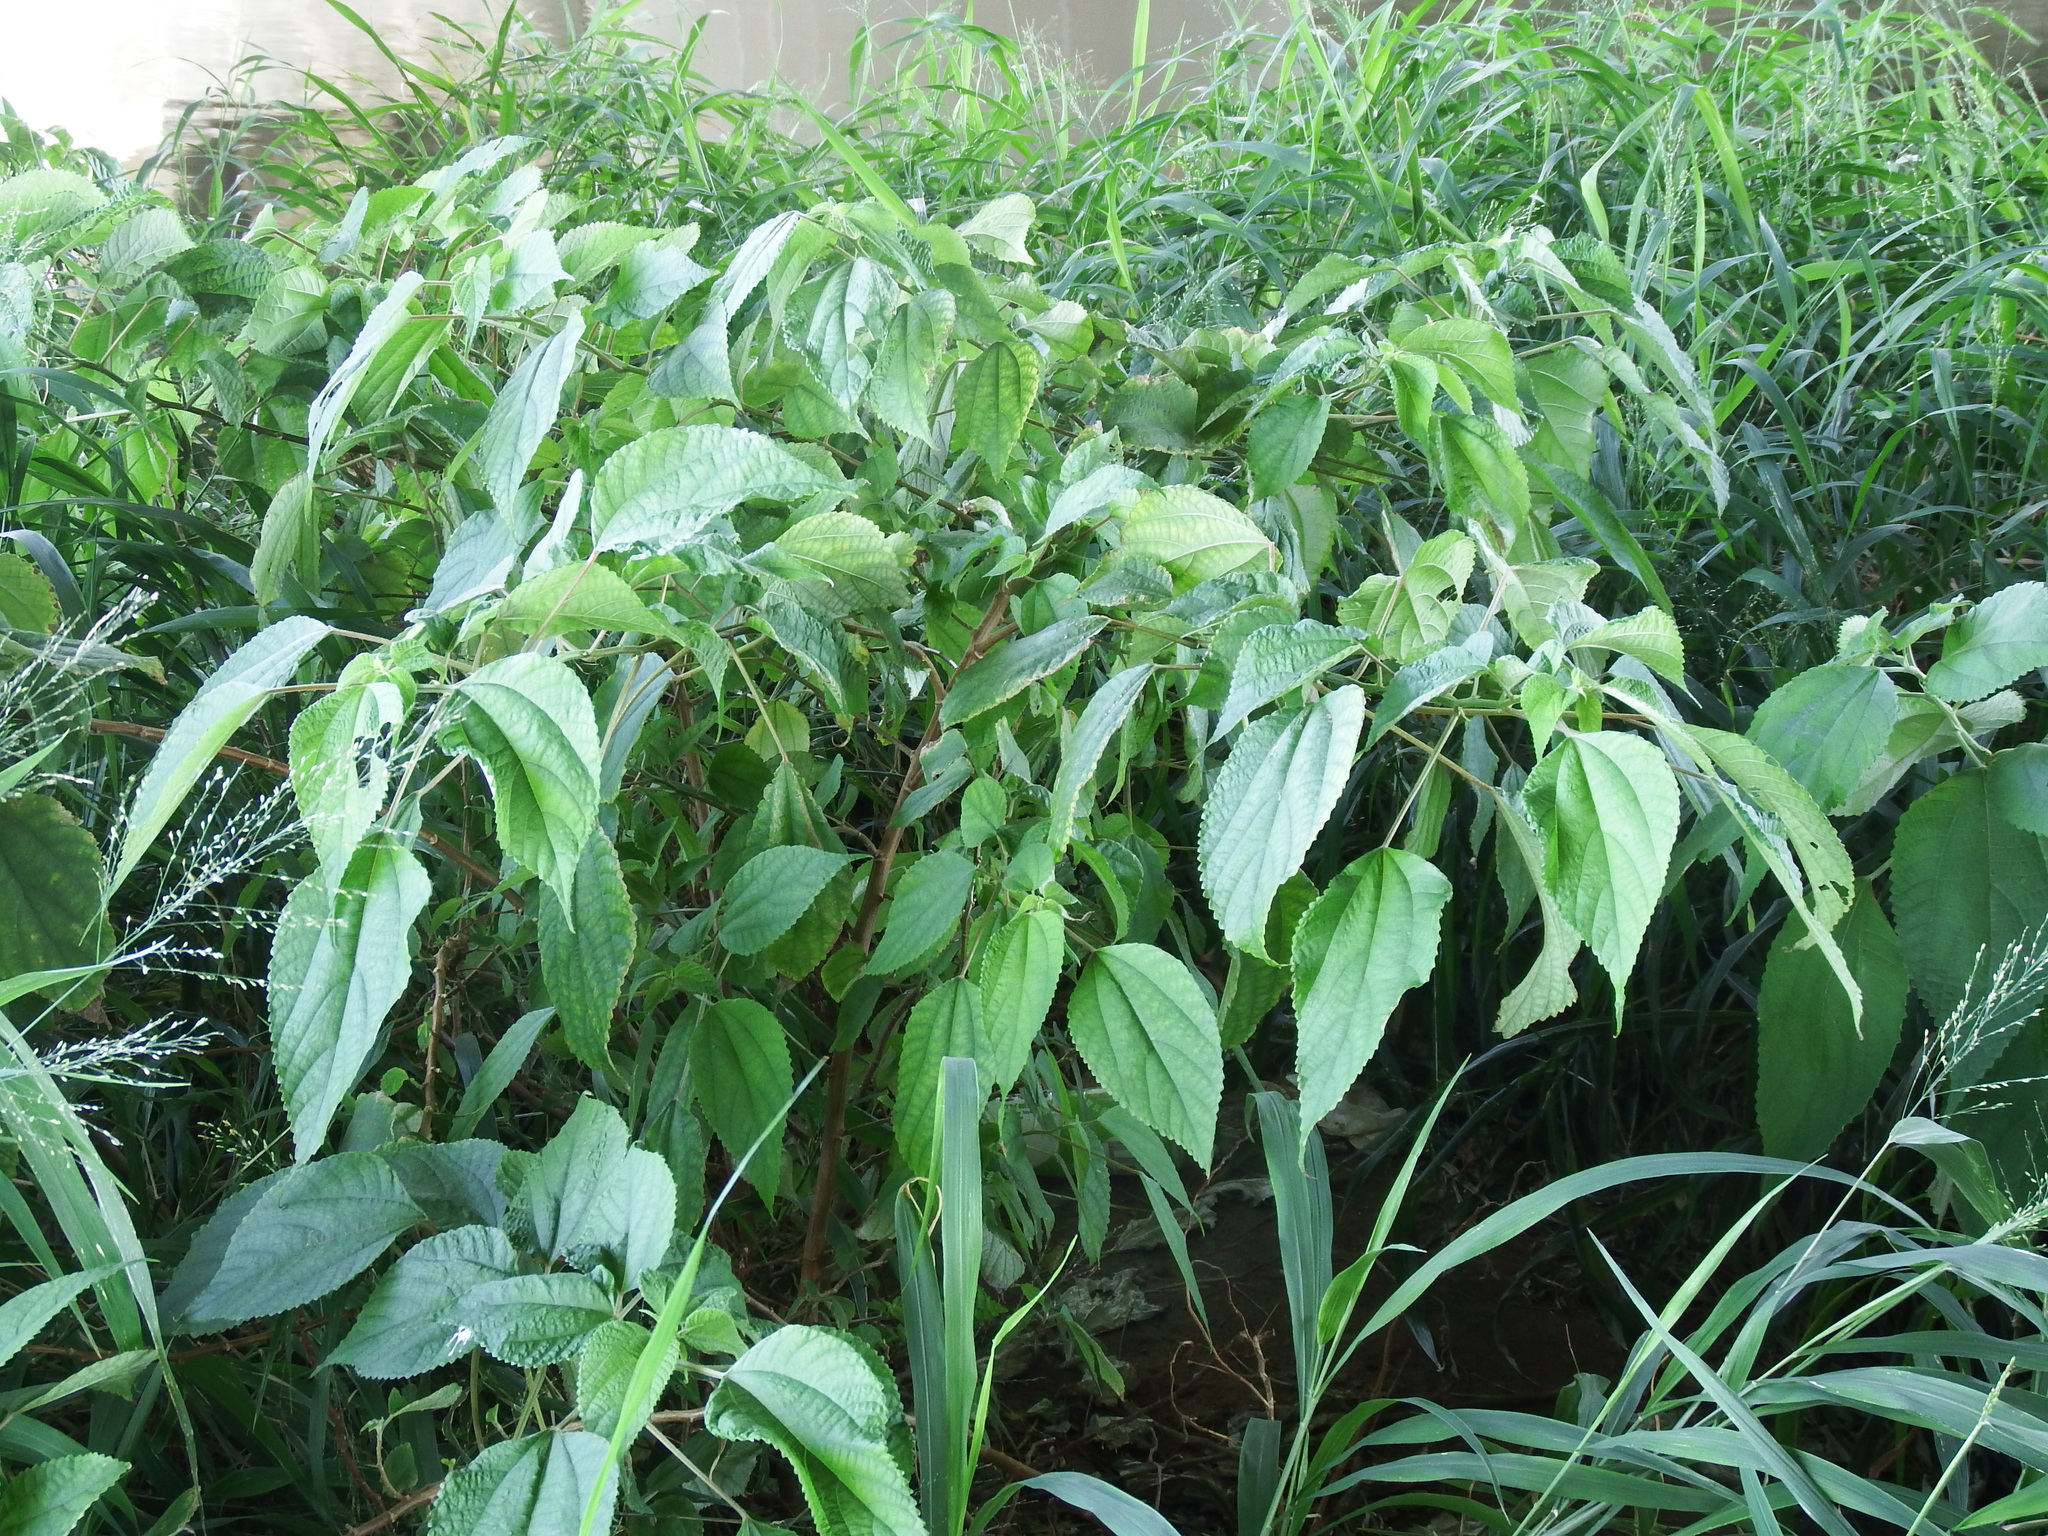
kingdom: Plantae
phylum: Tracheophyta
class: Magnoliopsida
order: Rosales
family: Urticaceae
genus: Boehmeria
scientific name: Boehmeria nivea
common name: Ramie chinese grass
